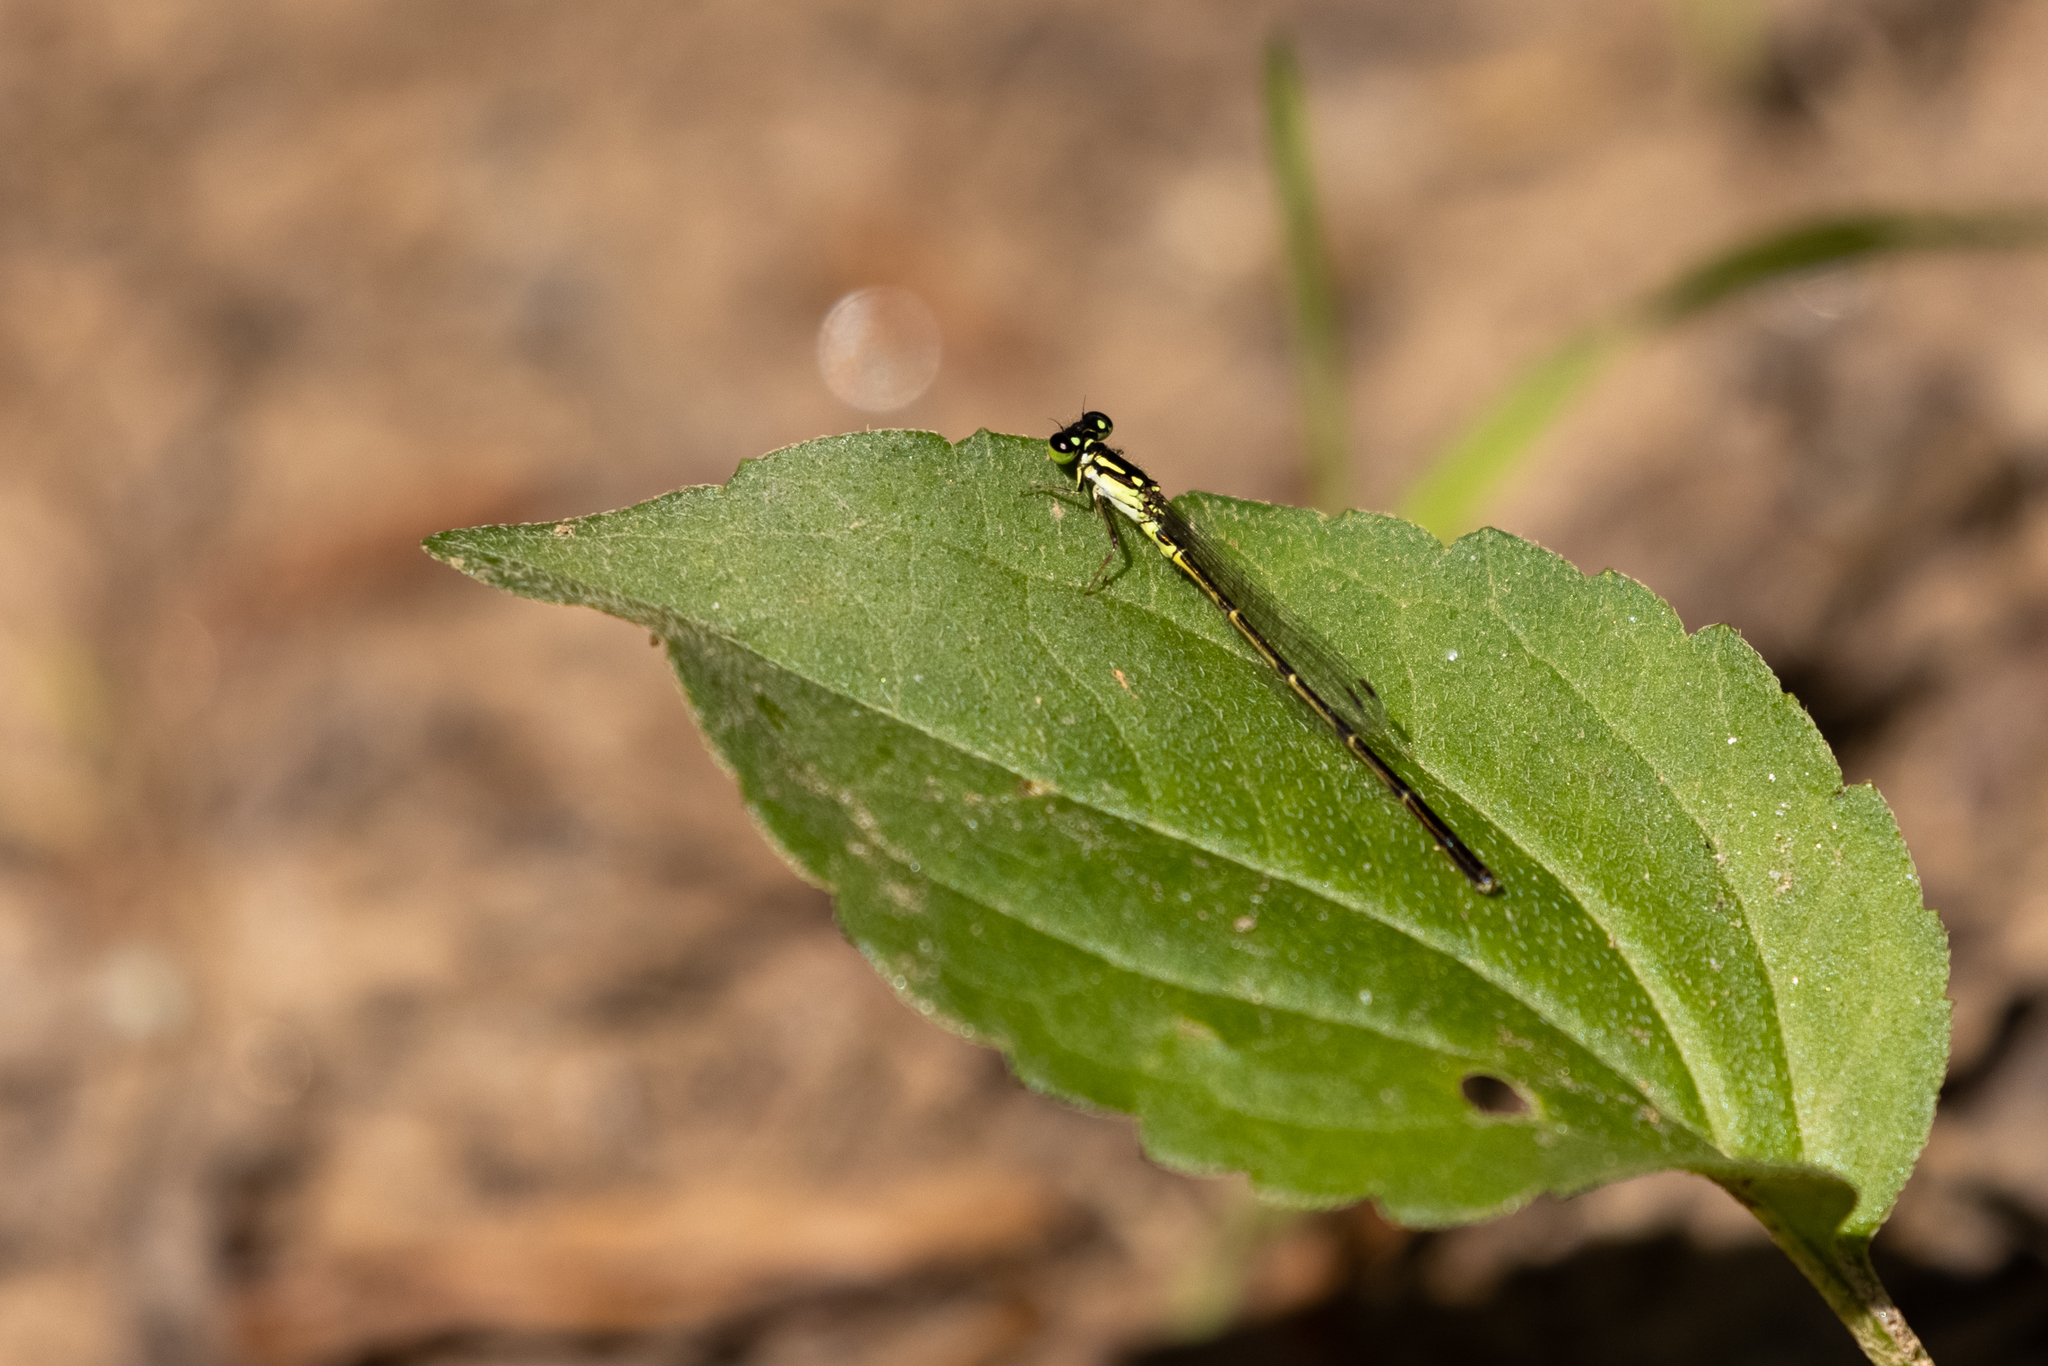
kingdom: Animalia
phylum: Arthropoda
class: Insecta
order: Odonata
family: Coenagrionidae
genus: Ischnura
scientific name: Ischnura posita
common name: Fragile forktail
